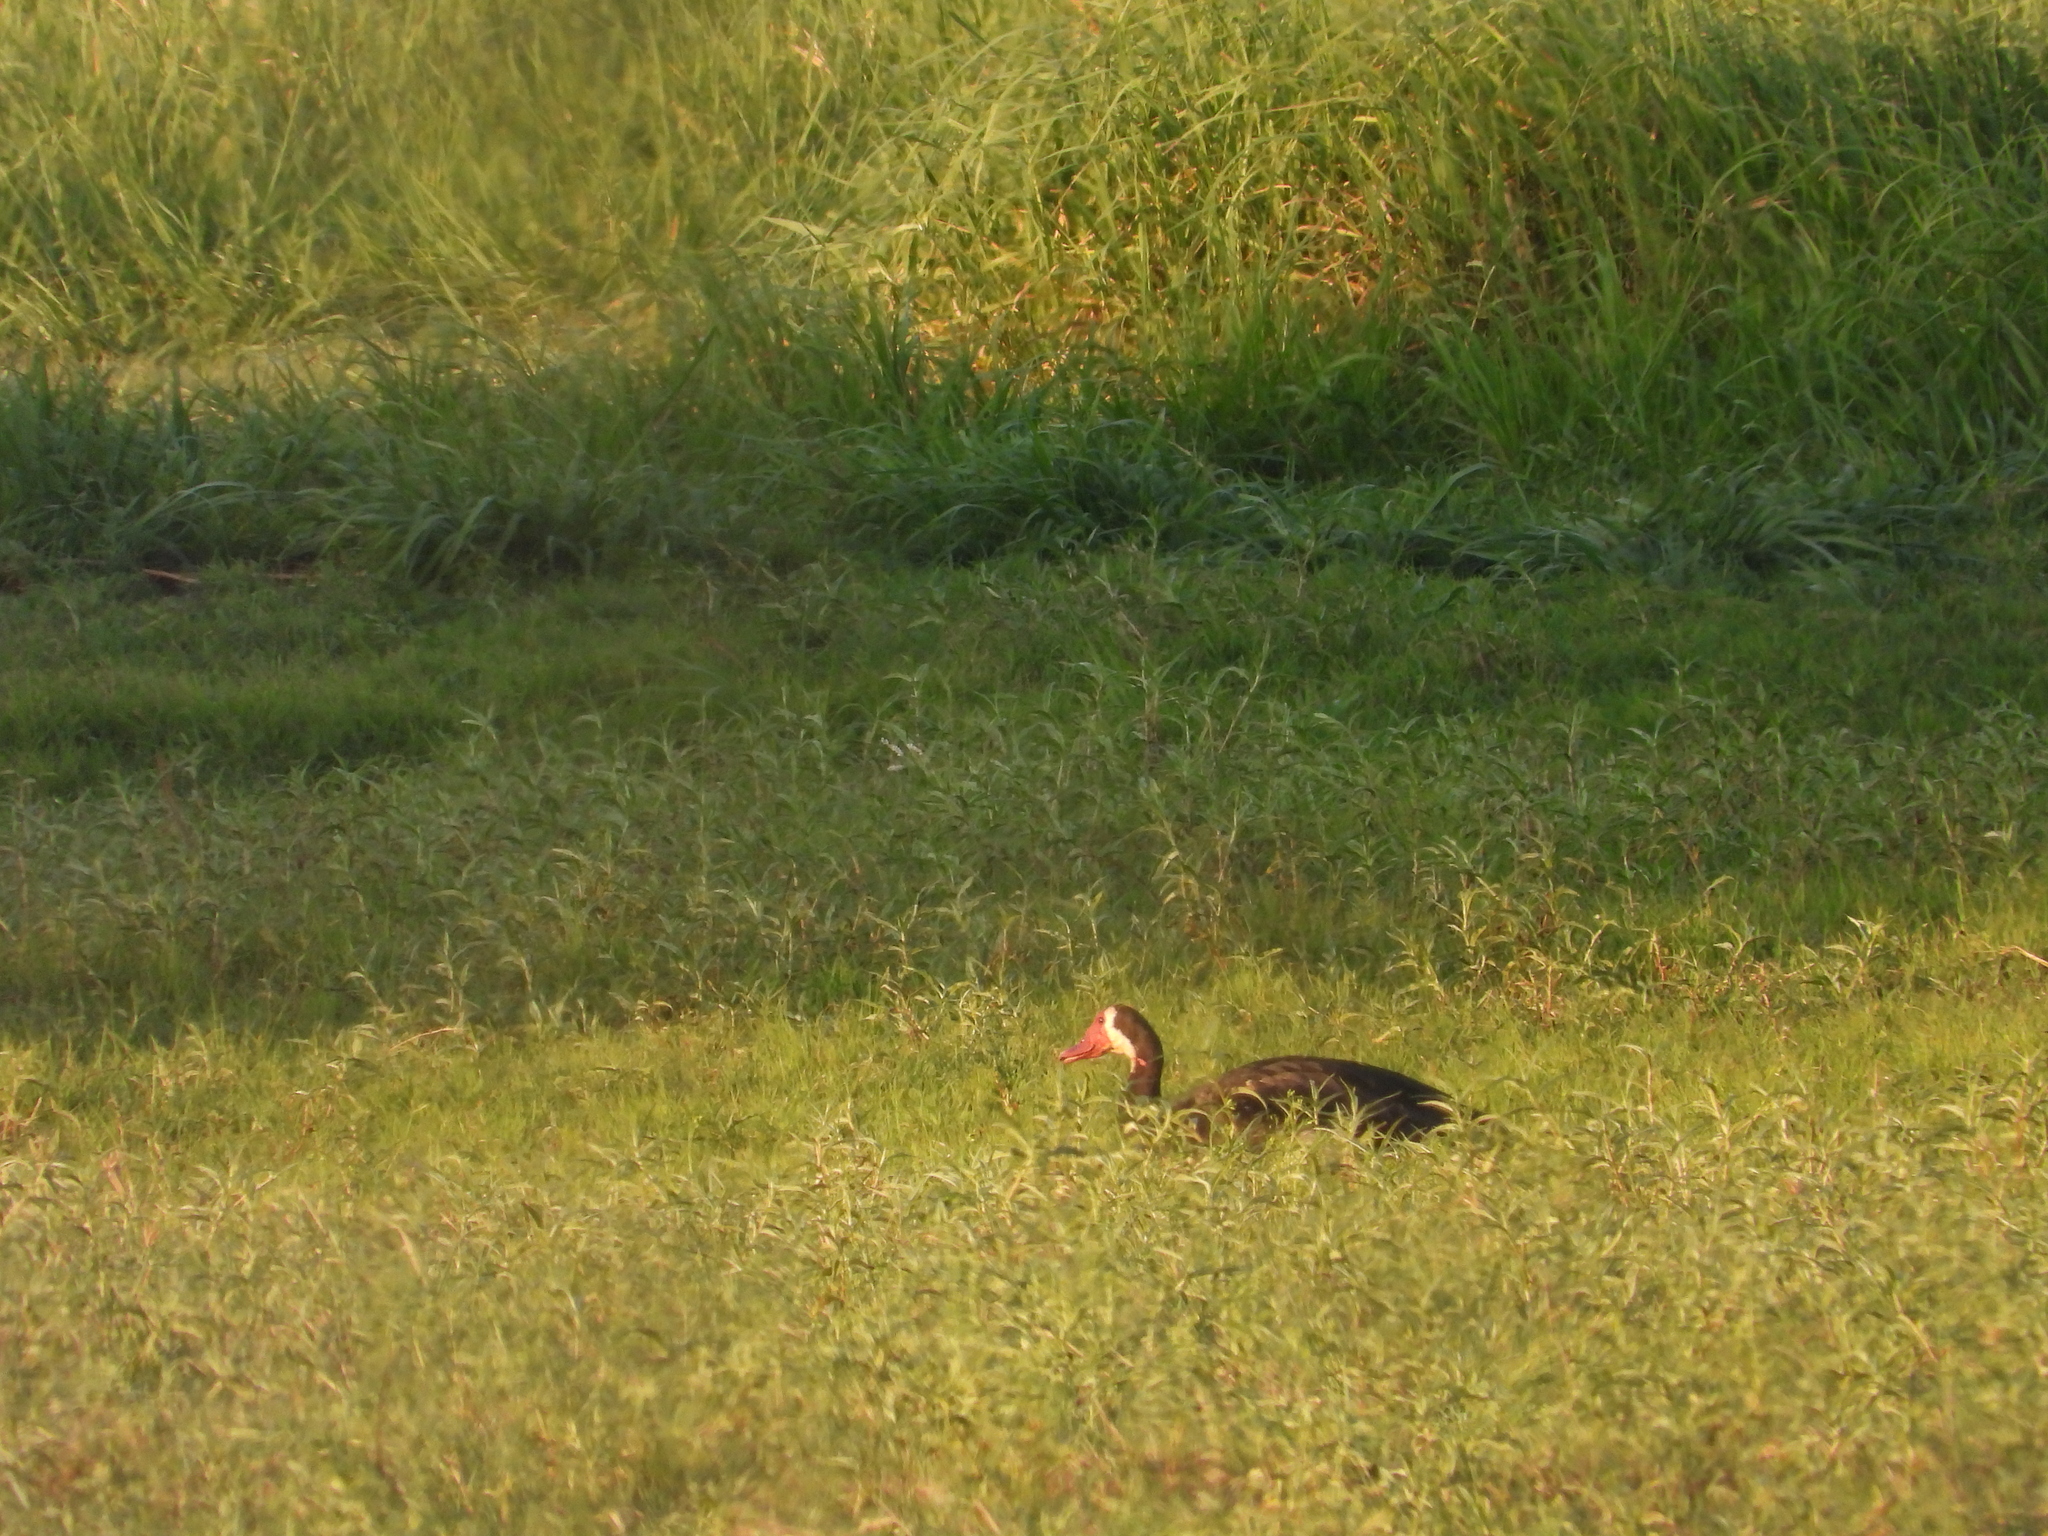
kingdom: Animalia
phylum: Chordata
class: Aves
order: Anseriformes
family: Anatidae
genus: Plectropterus
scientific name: Plectropterus gambensis
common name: Spur-winged goose
